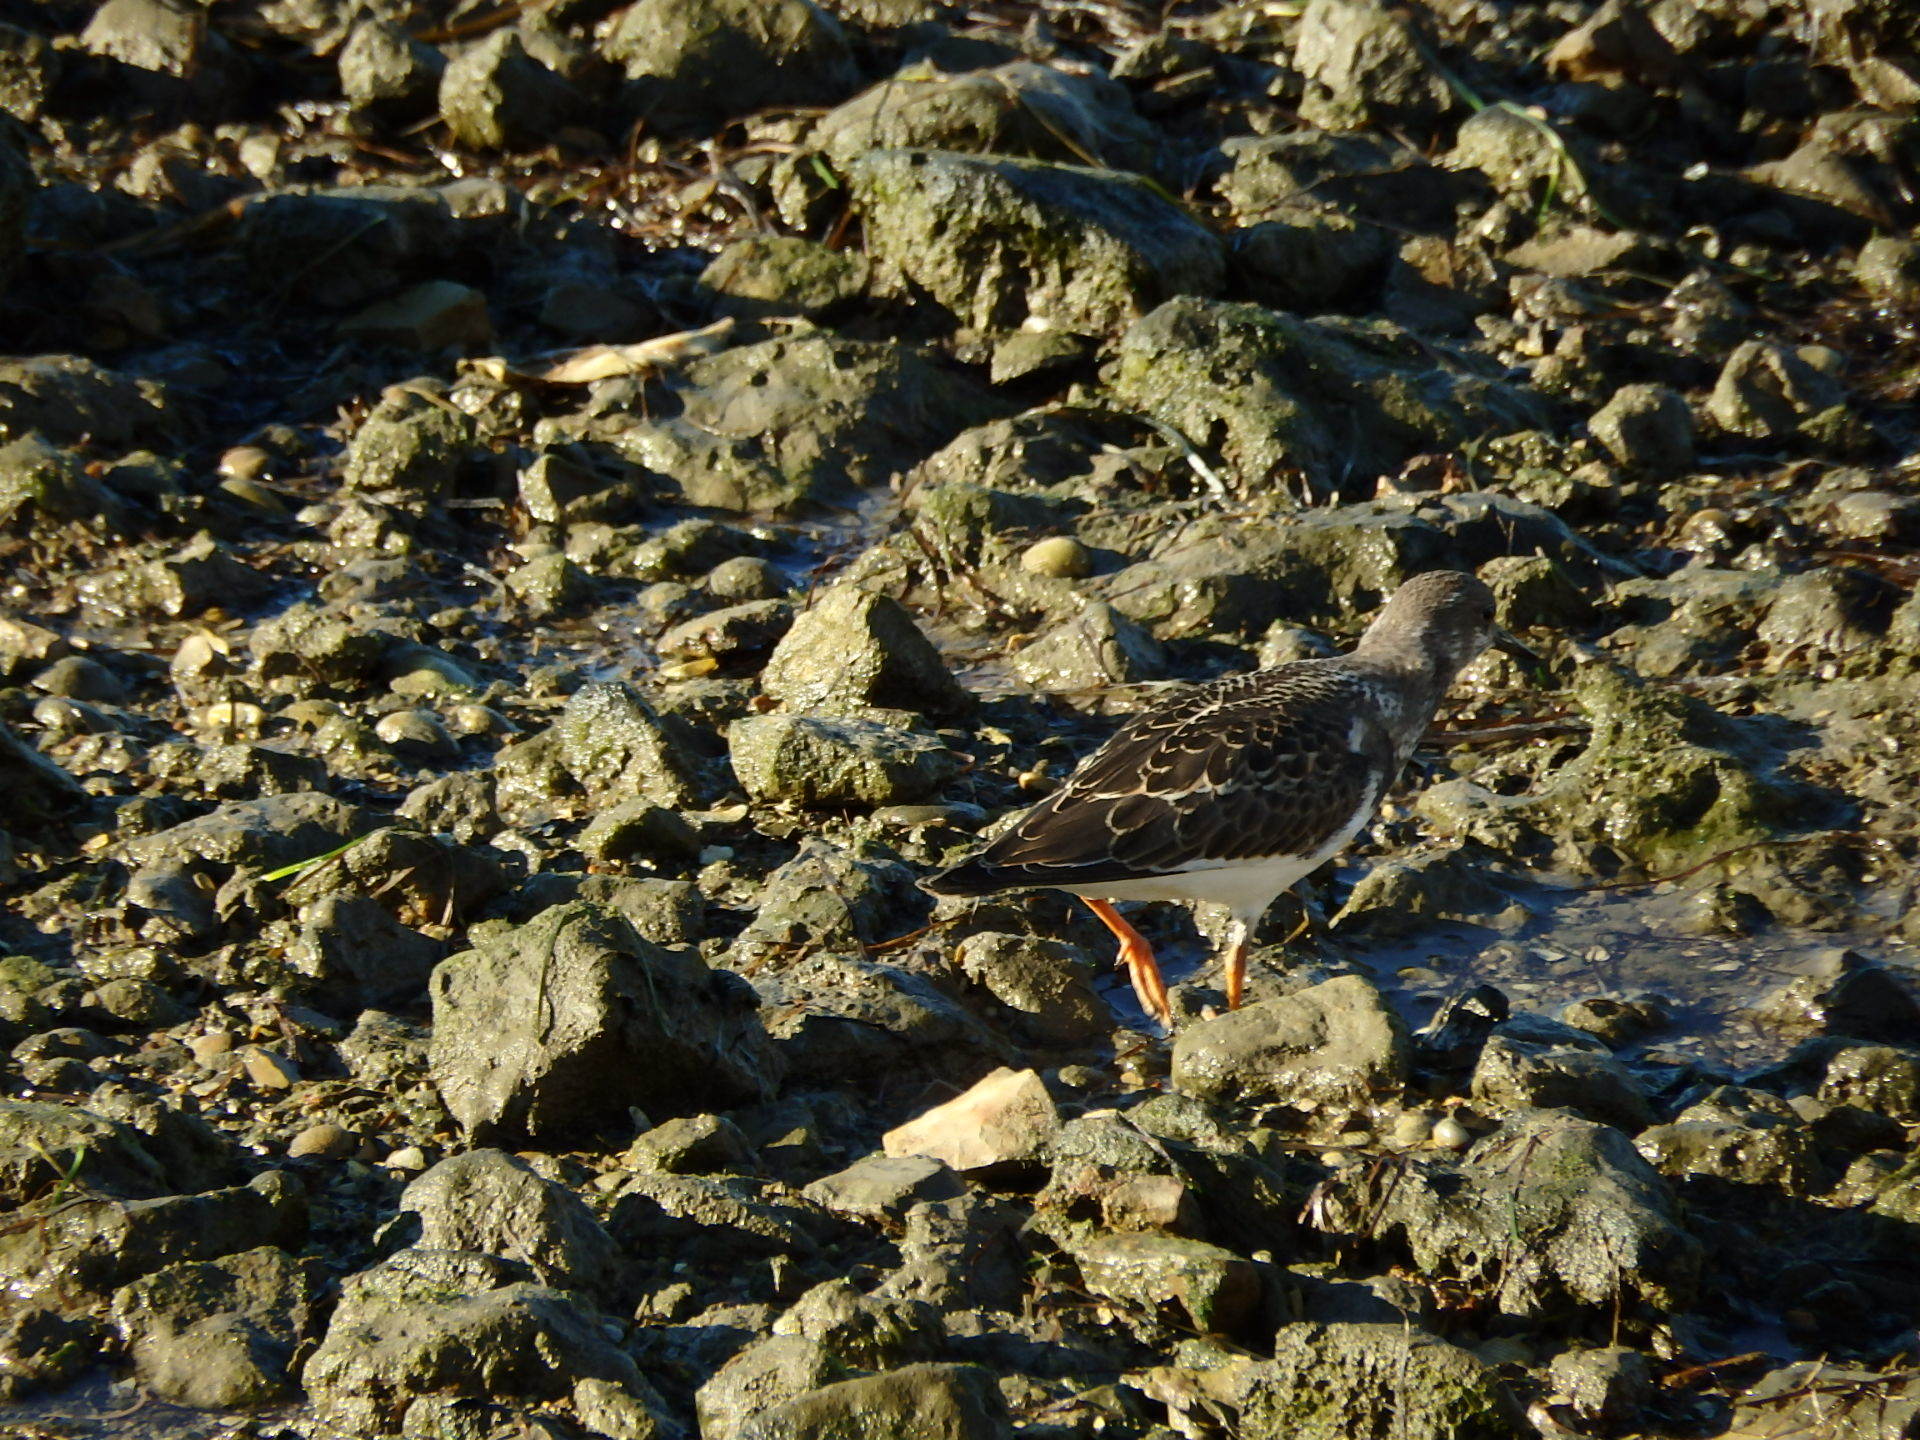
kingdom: Animalia
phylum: Chordata
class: Aves
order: Charadriiformes
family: Scolopacidae
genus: Arenaria
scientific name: Arenaria interpres
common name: Ruddy turnstone
